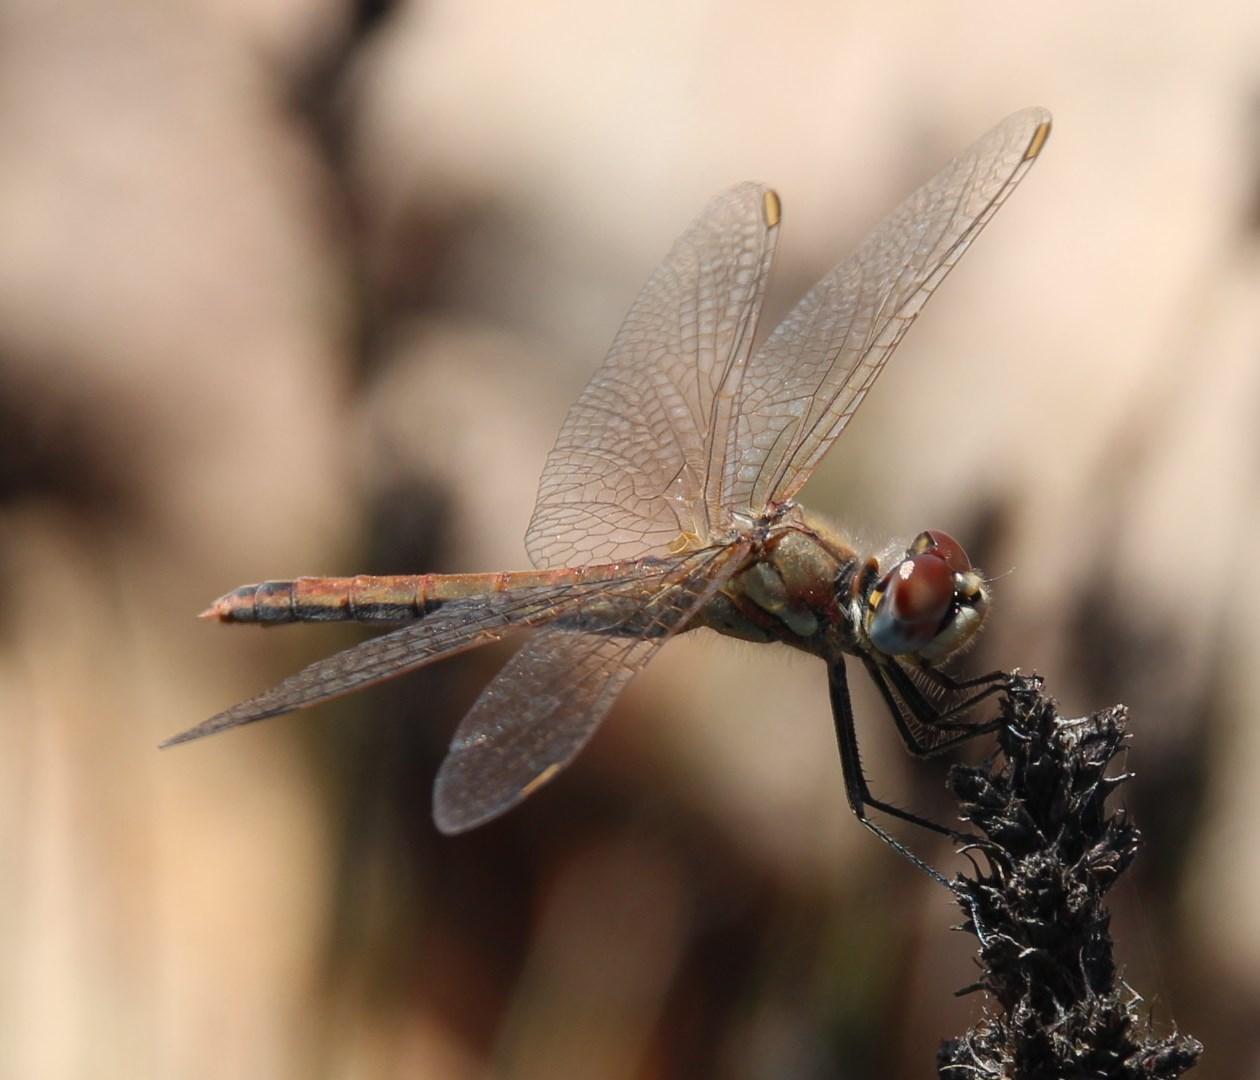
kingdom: Animalia
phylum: Arthropoda
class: Insecta
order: Odonata
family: Libellulidae
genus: Sympetrum
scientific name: Sympetrum fonscolombii
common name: Red-veined darter
